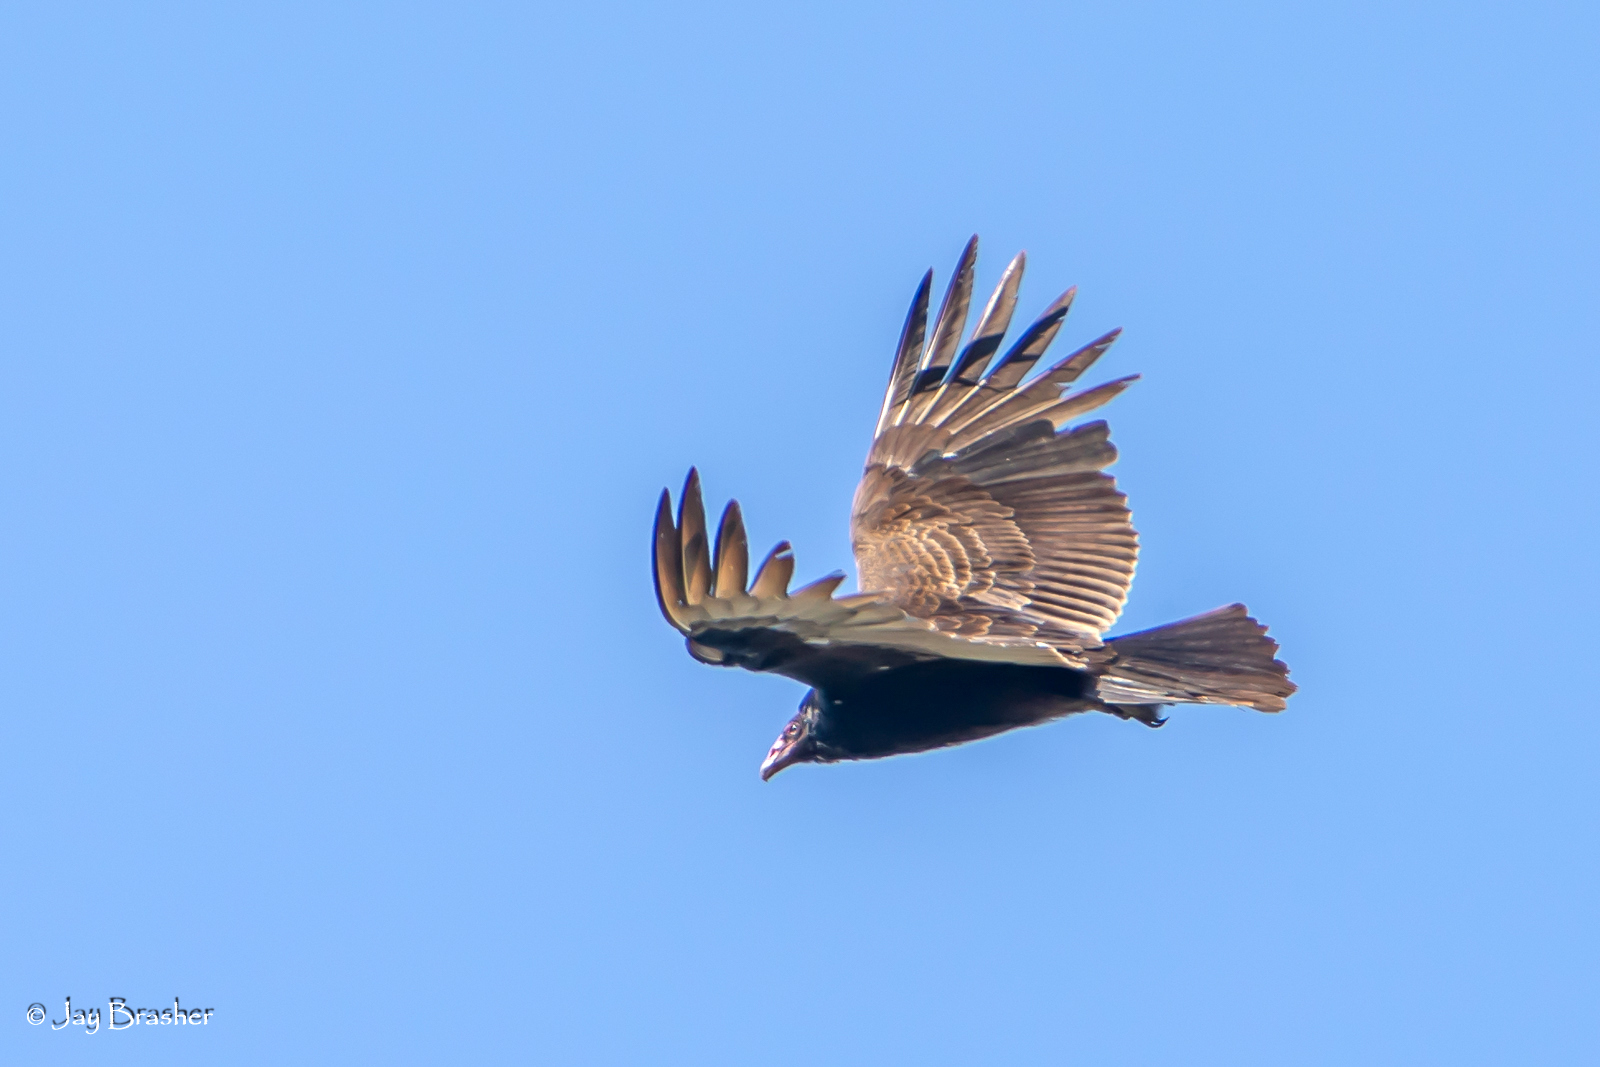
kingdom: Animalia
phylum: Chordata
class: Aves
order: Accipitriformes
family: Cathartidae
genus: Cathartes
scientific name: Cathartes aura
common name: Turkey vulture
